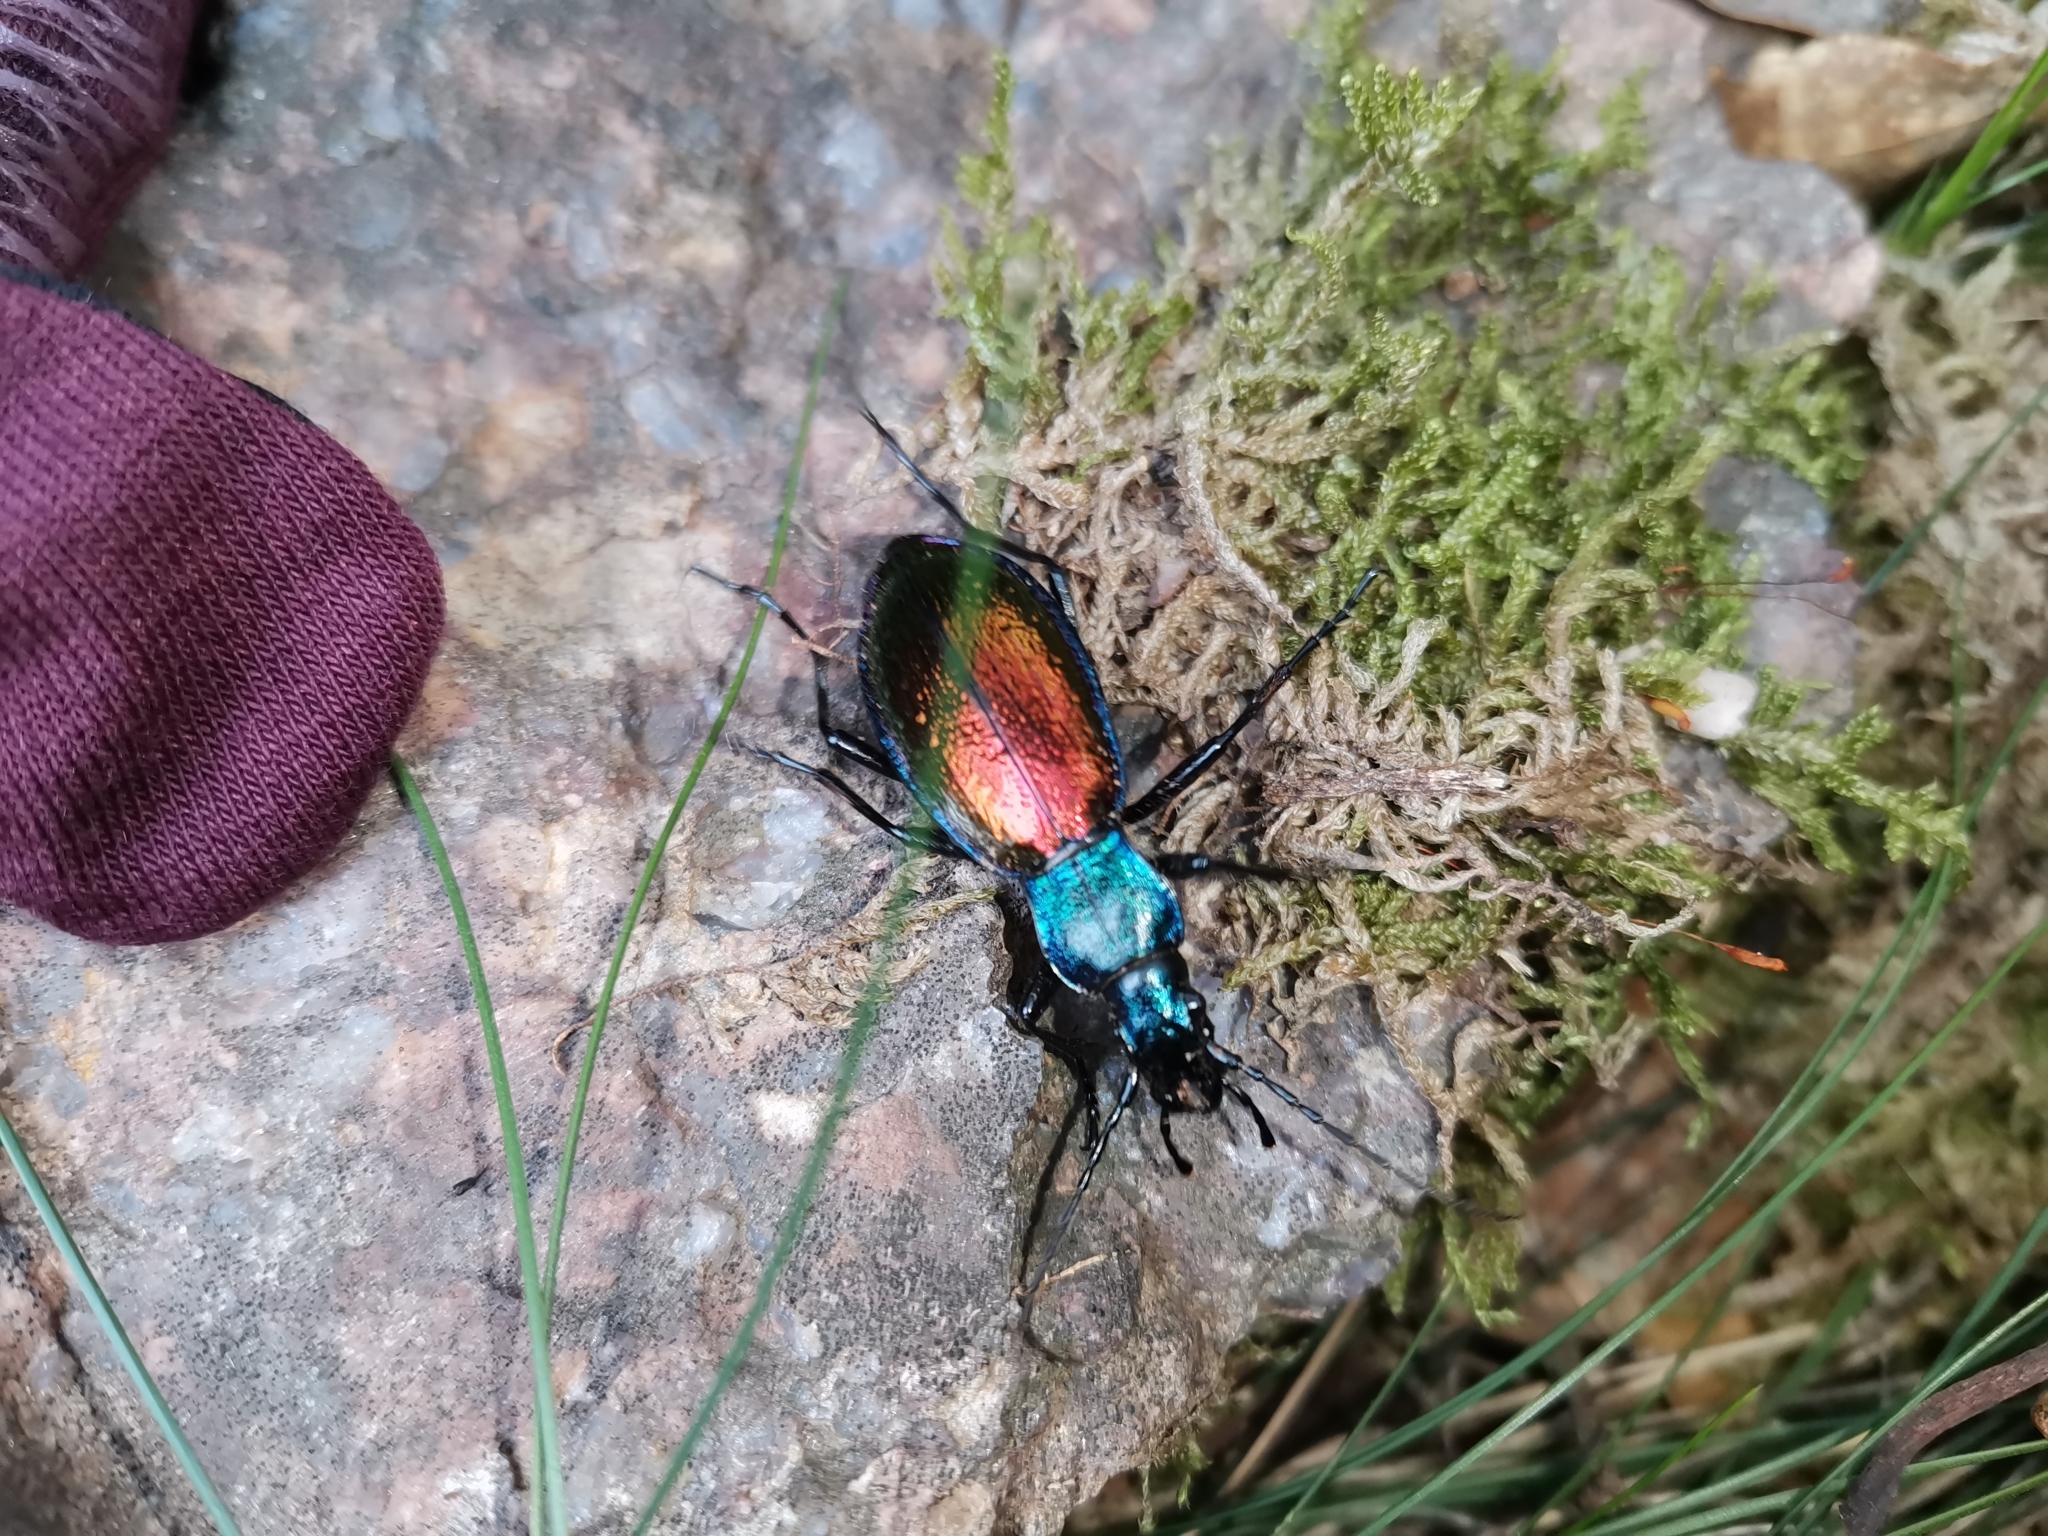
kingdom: Animalia
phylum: Arthropoda
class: Insecta
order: Coleoptera
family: Carabidae
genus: Carabus
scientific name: Carabus hispanus
